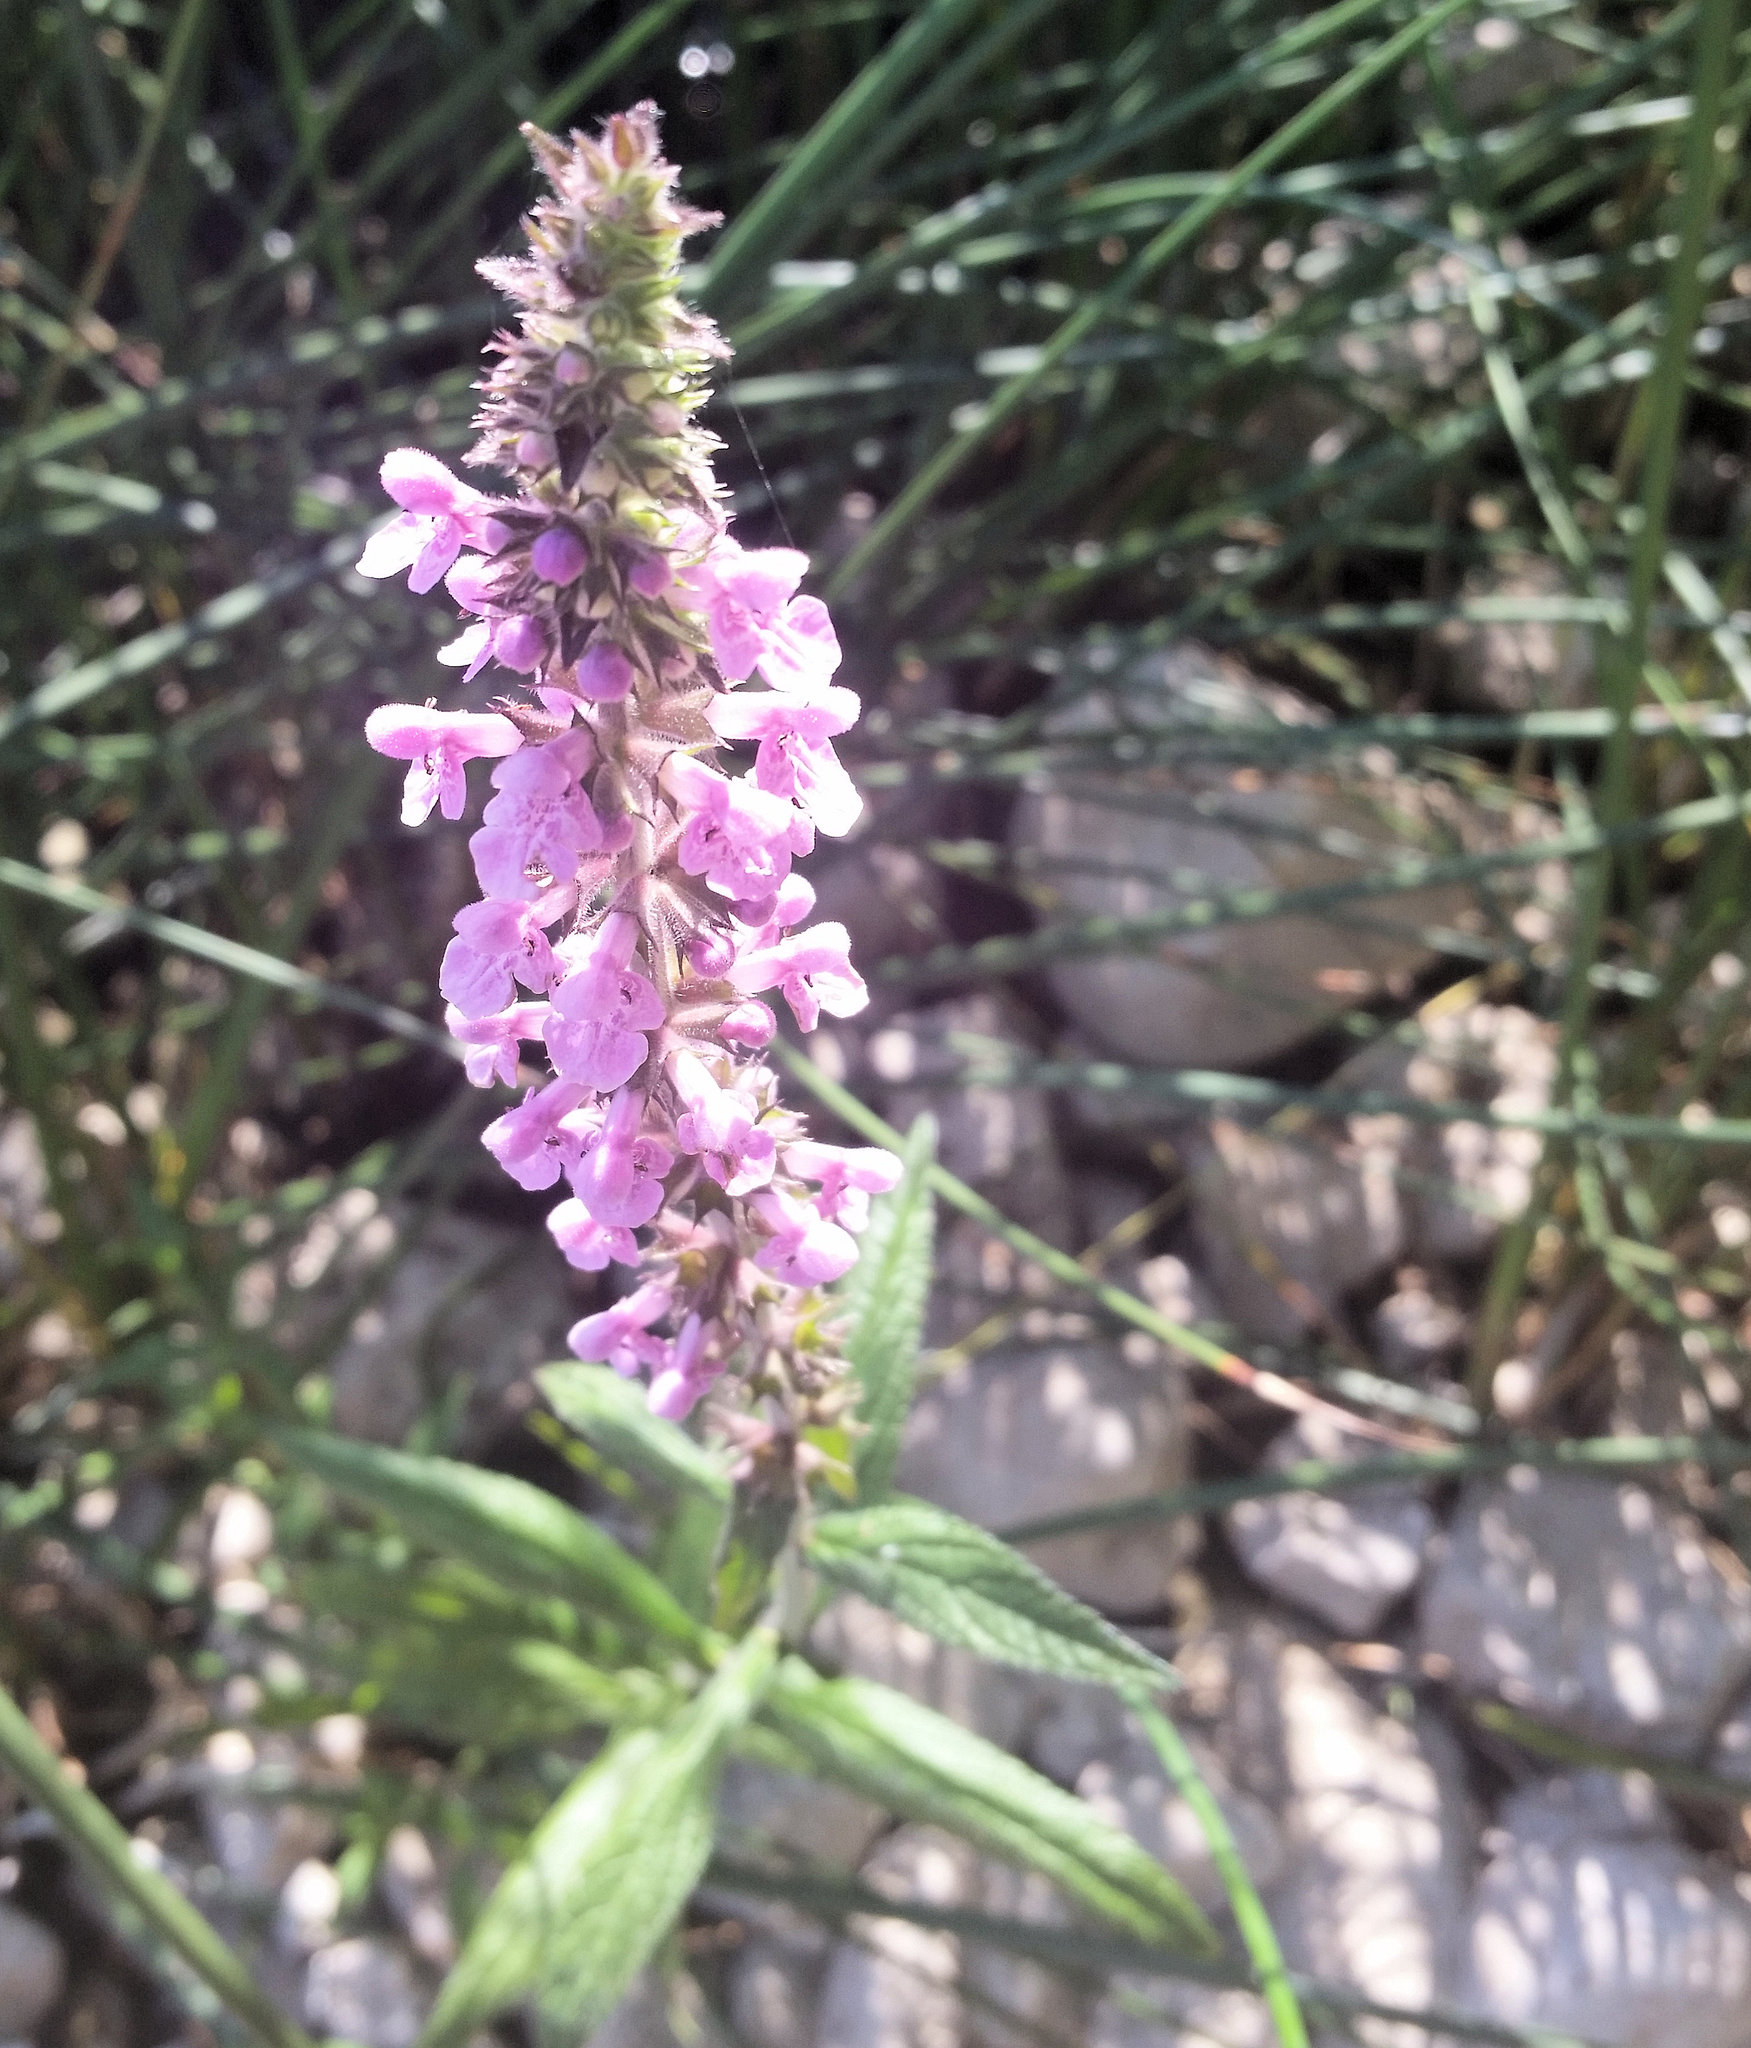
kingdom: Plantae
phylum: Tracheophyta
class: Magnoliopsida
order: Lamiales
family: Lamiaceae
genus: Stachys
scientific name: Stachys palustris
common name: Marsh woundwort
